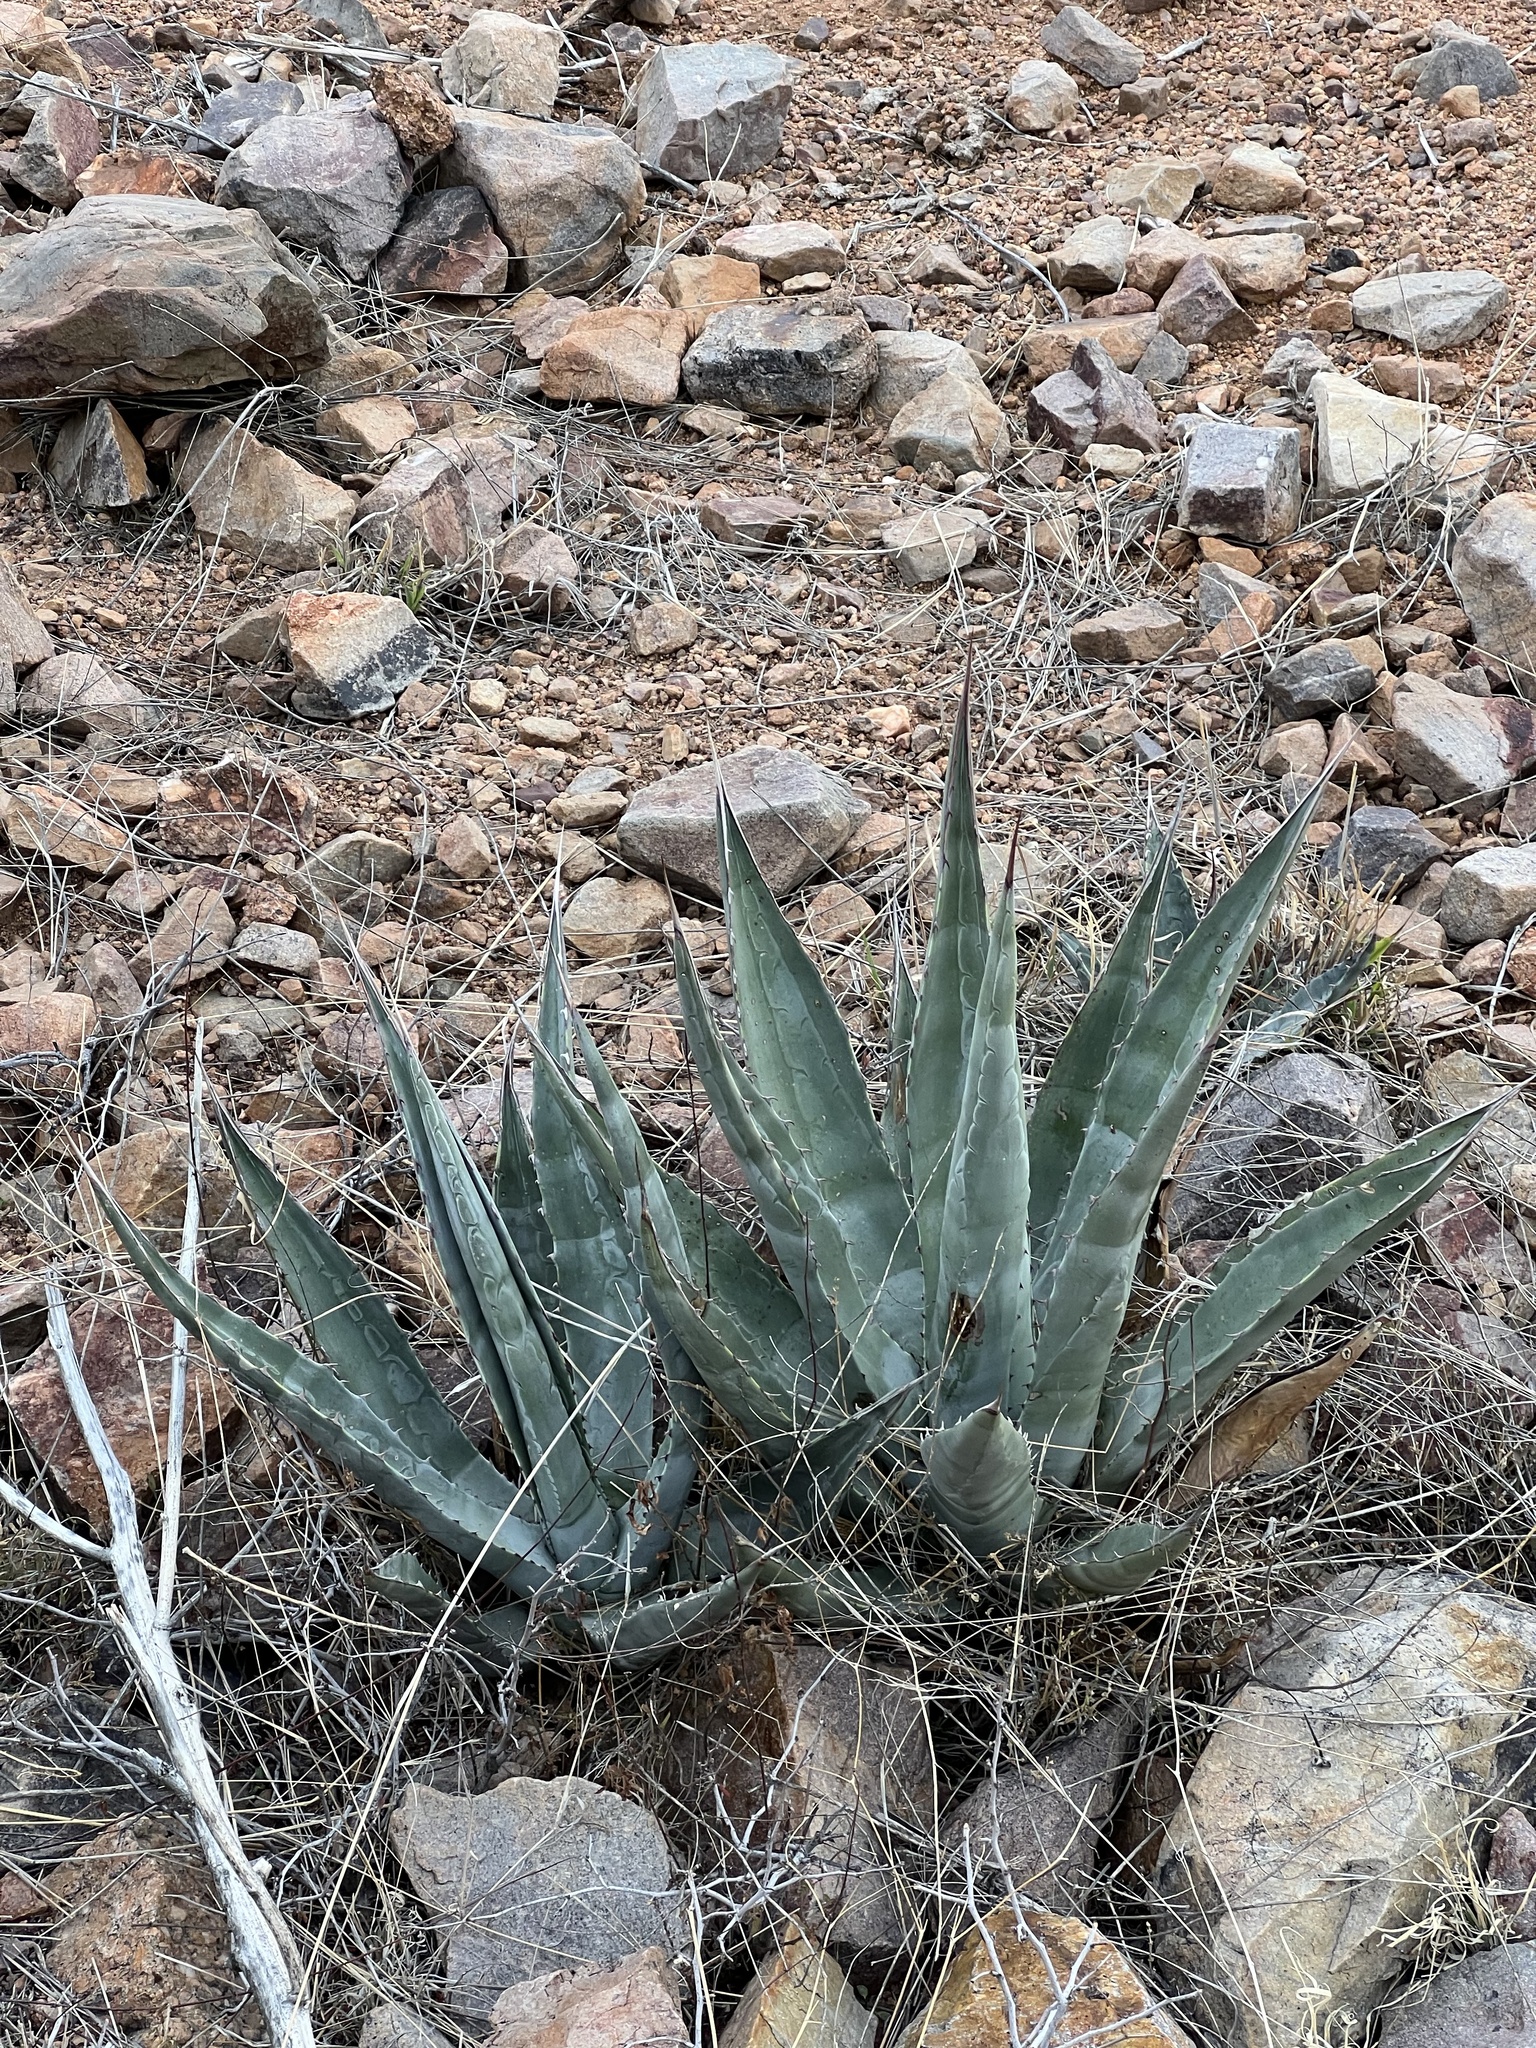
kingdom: Plantae
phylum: Tracheophyta
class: Liliopsida
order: Asparagales
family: Asparagaceae
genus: Agave
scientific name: Agave palmeri
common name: Palmer agave
